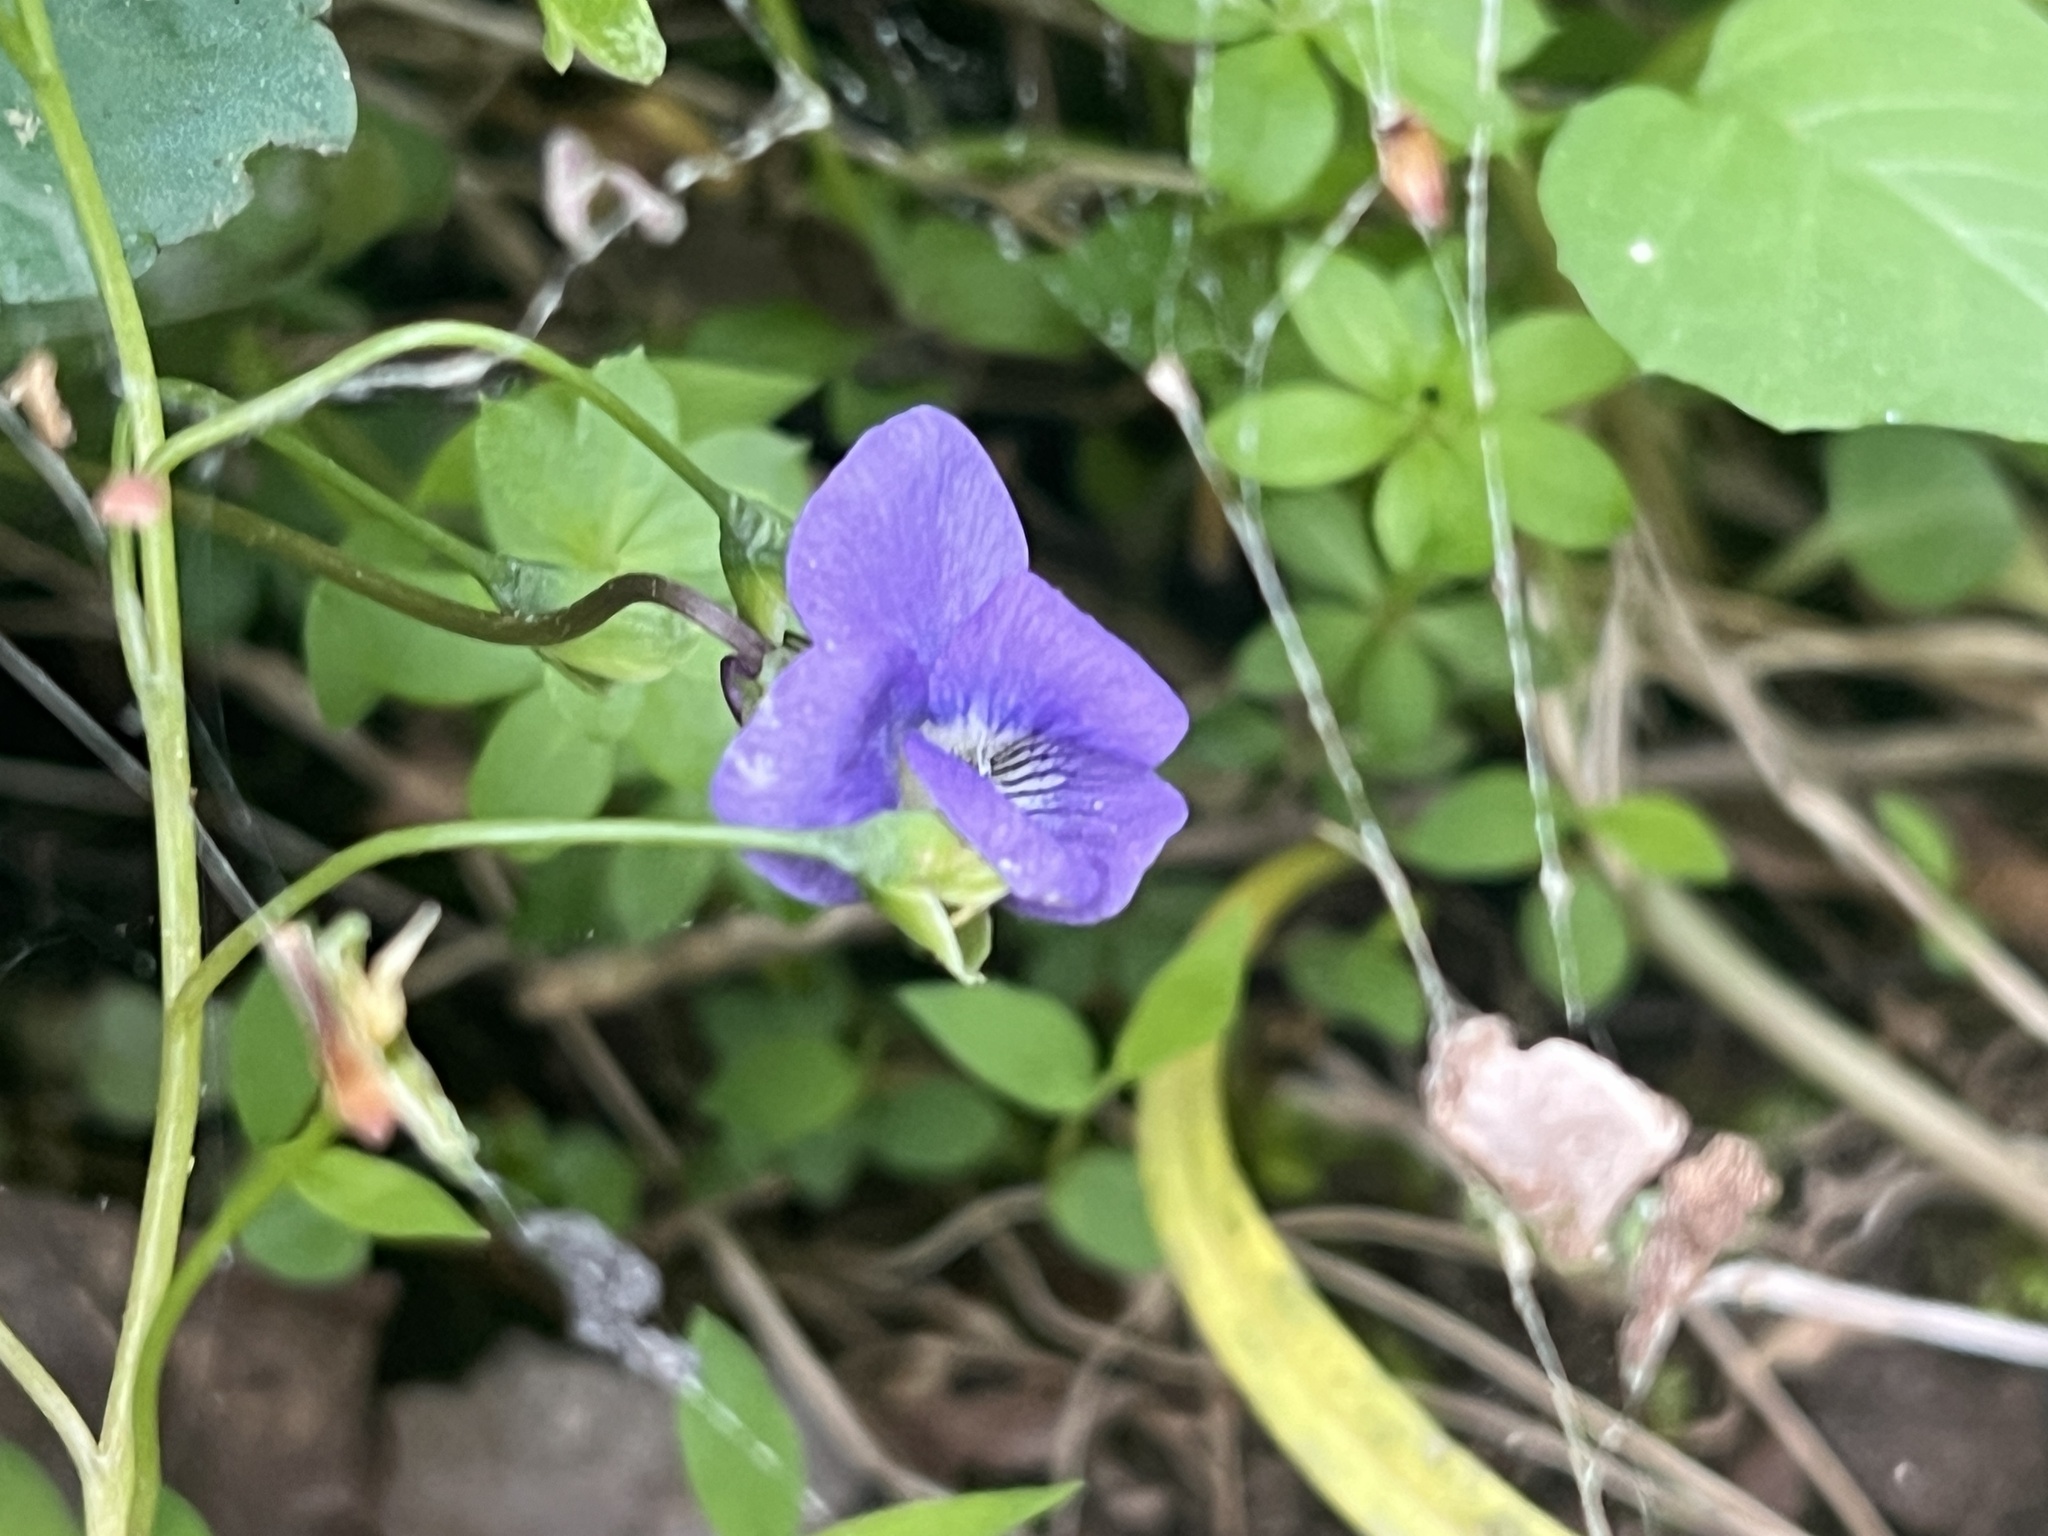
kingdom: Plantae
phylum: Tracheophyta
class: Magnoliopsida
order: Malpighiales
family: Violaceae
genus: Viola
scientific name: Viola sororia
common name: Dooryard violet
